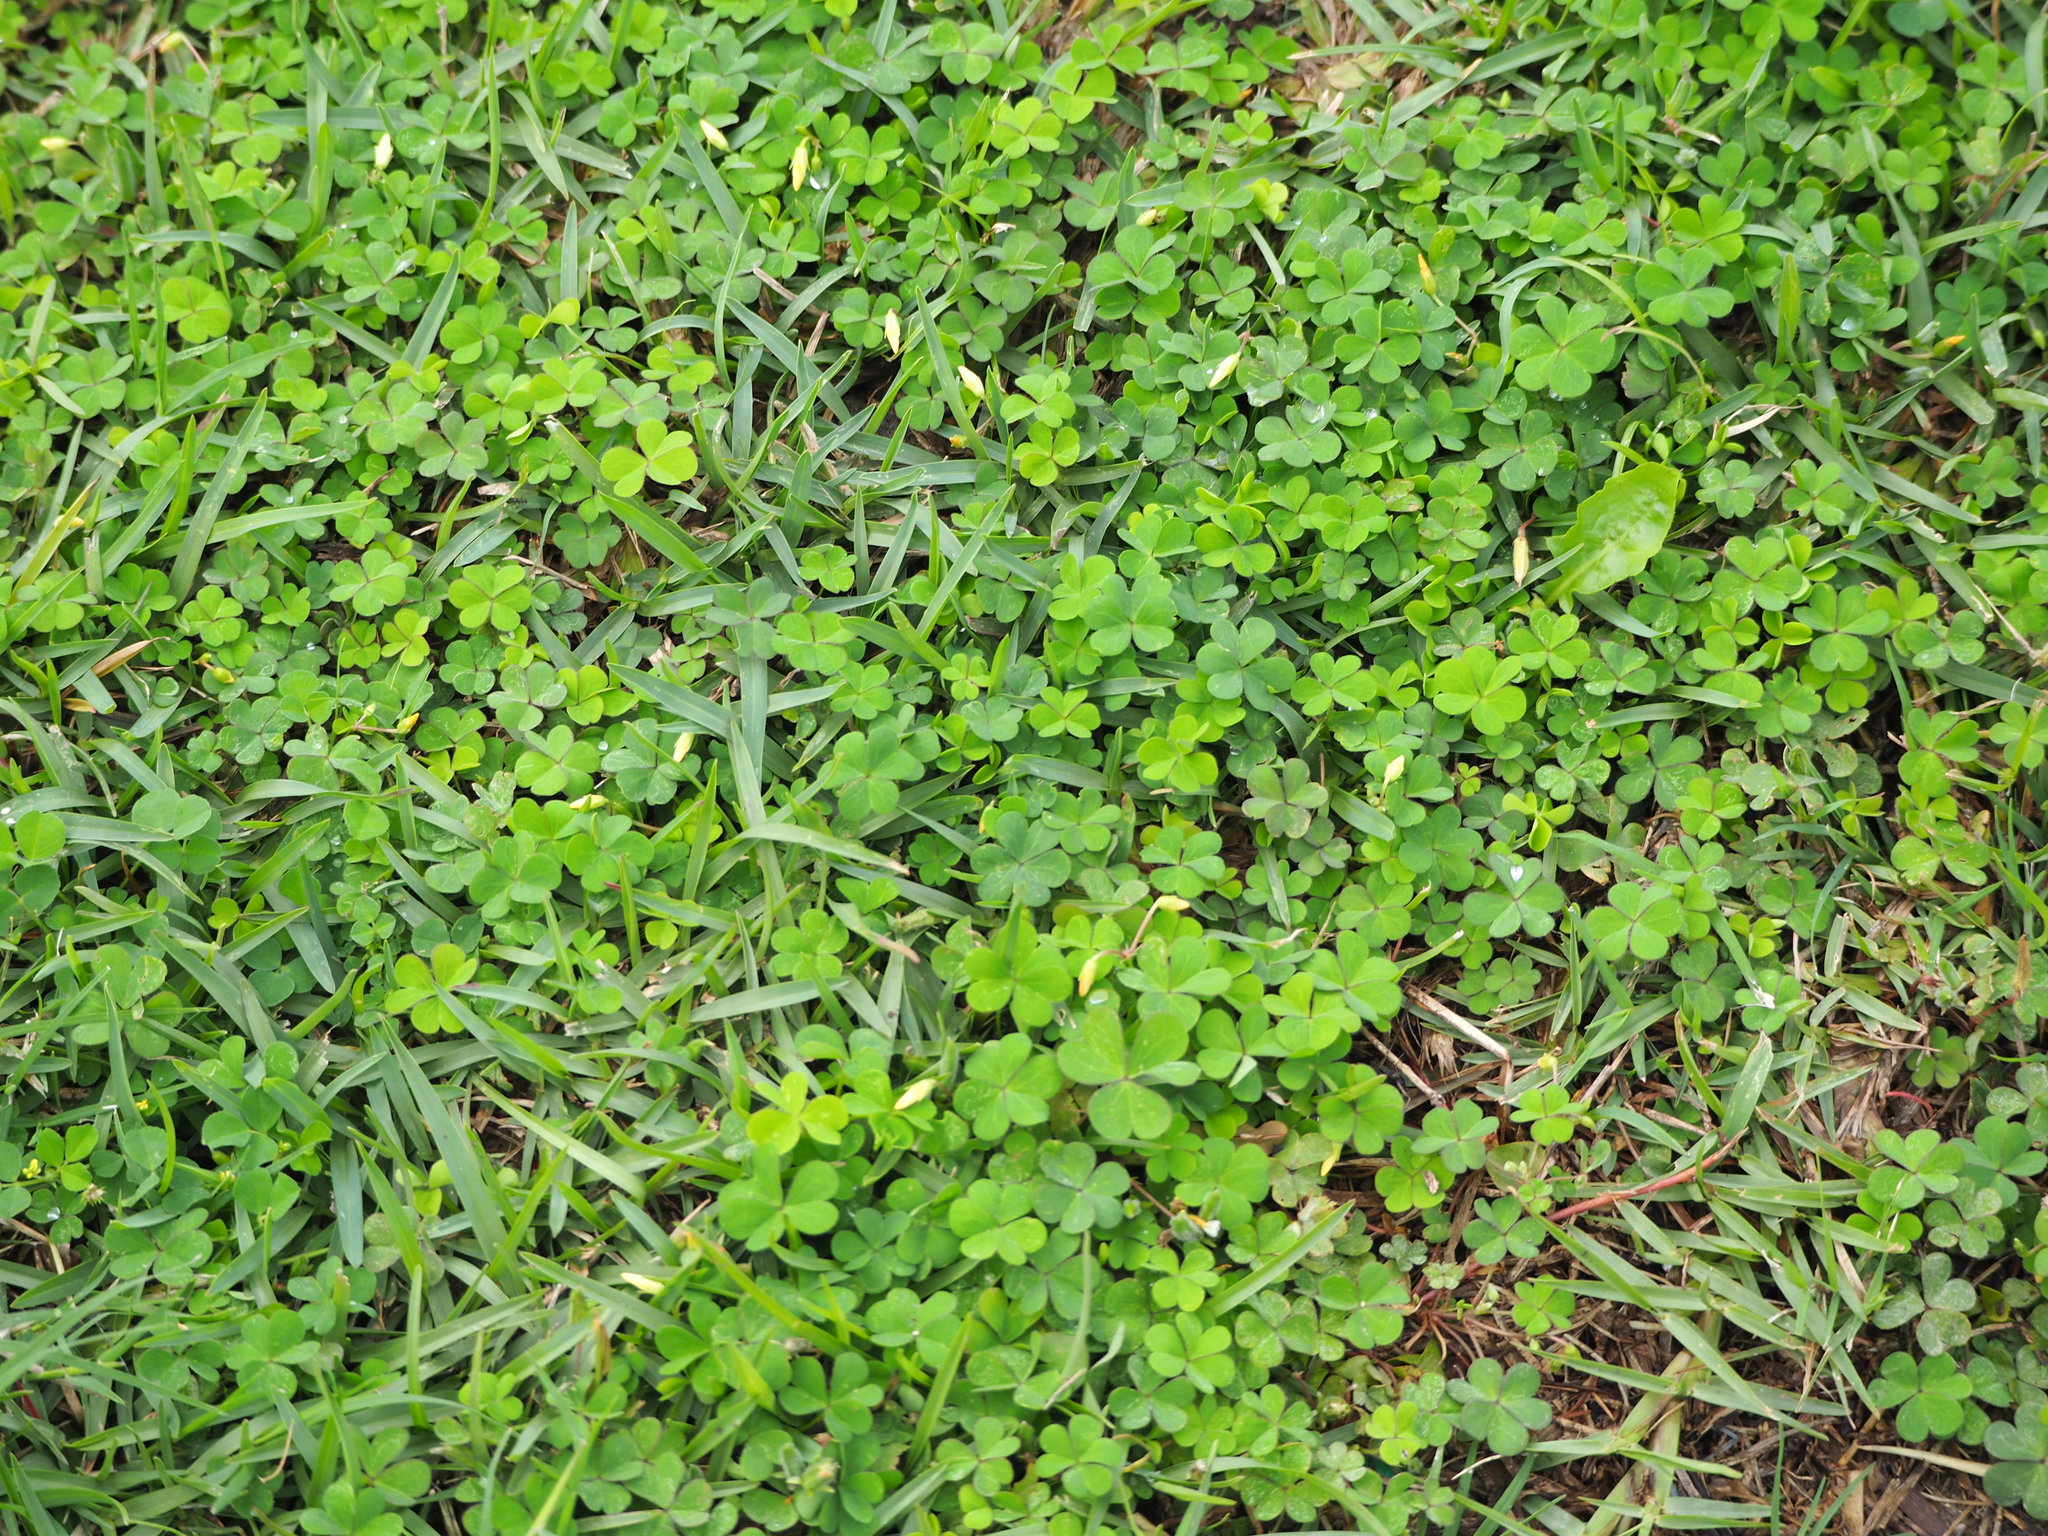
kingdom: Plantae
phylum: Tracheophyta
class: Magnoliopsida
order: Oxalidales
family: Oxalidaceae
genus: Oxalis
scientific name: Oxalis corniculata
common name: Procumbent yellow-sorrel
